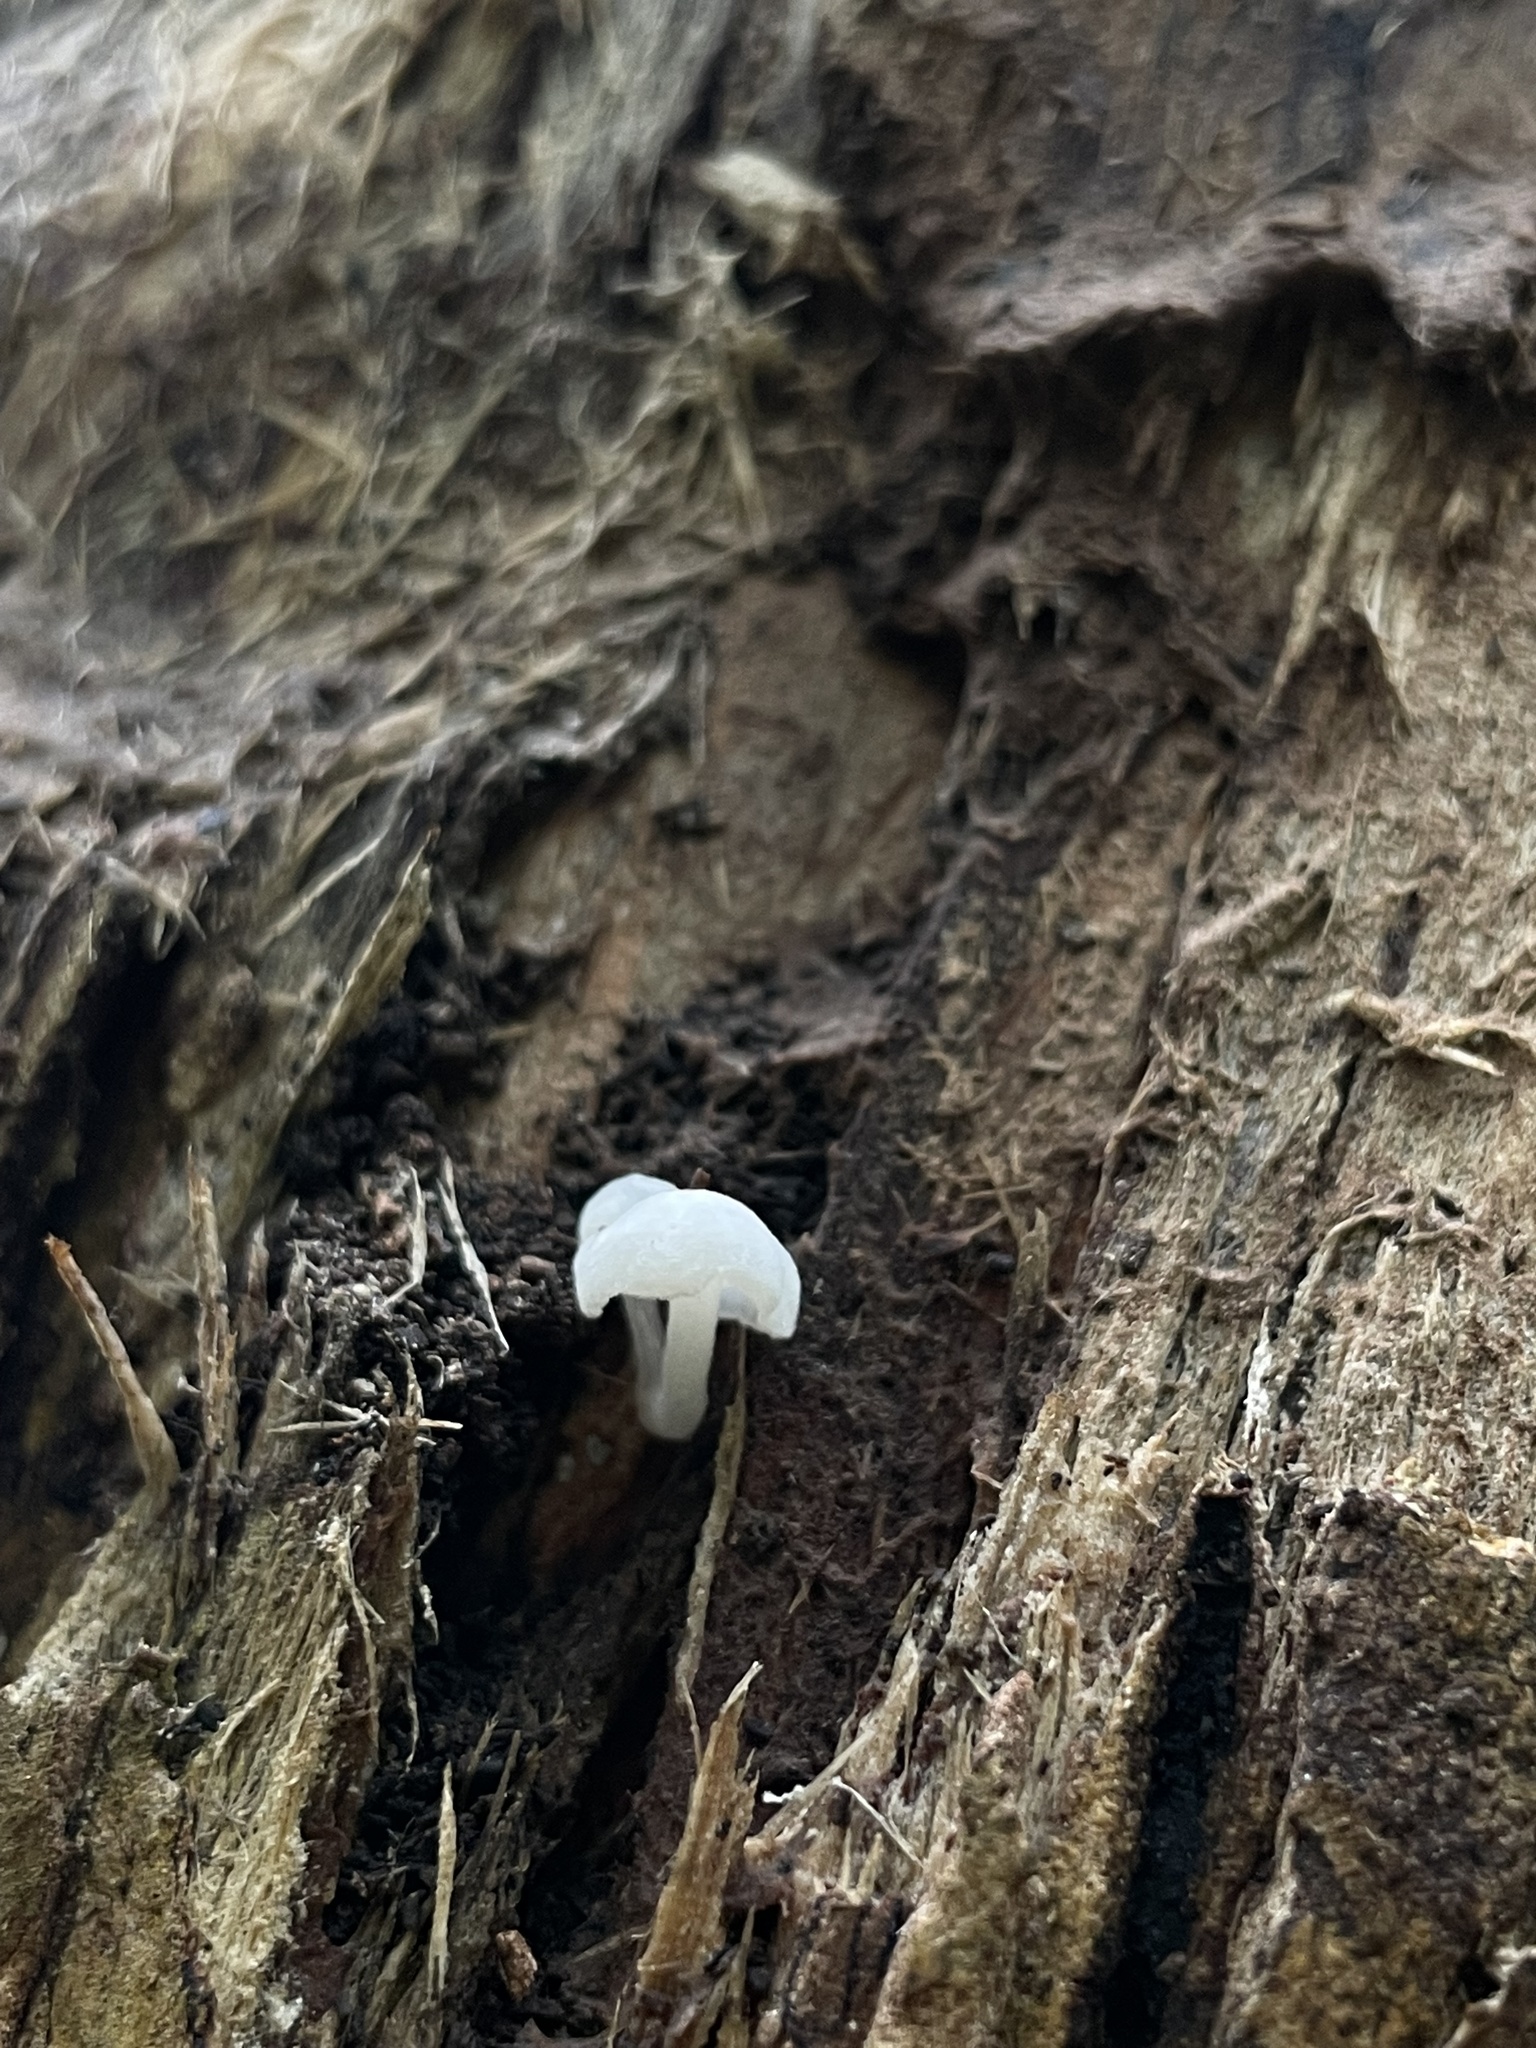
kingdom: Fungi
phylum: Basidiomycota
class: Agaricomycetes
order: Agaricales
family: Omphalotaceae
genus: Marasmiellus
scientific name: Marasmiellus candidus
